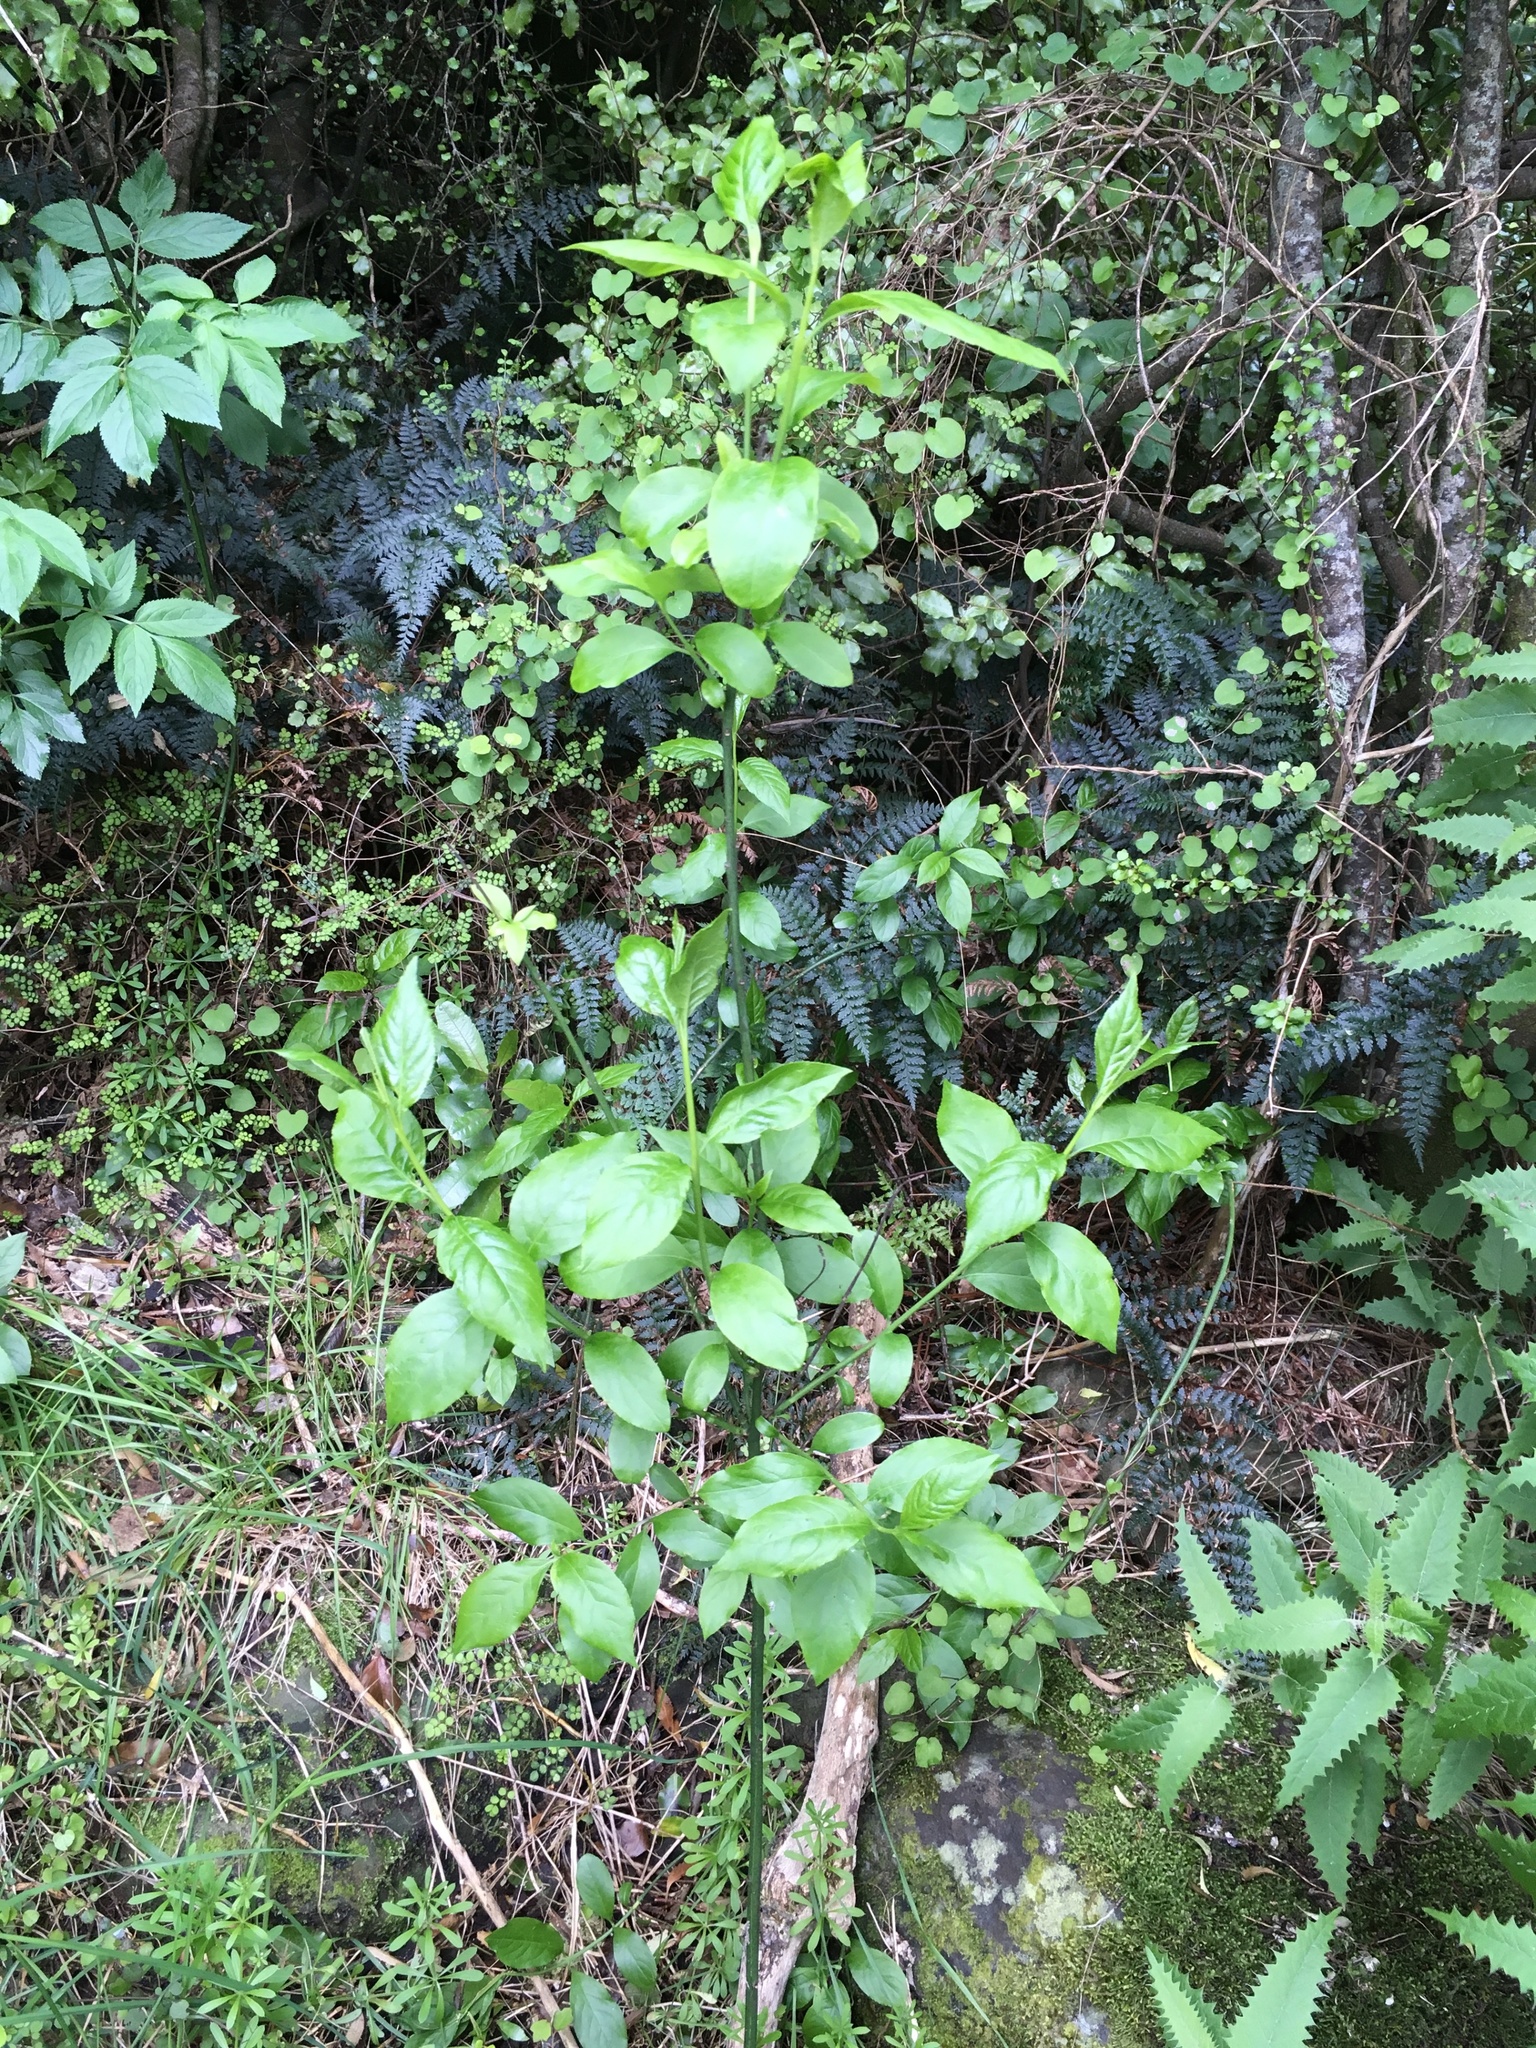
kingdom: Plantae
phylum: Tracheophyta
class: Magnoliopsida
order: Celastrales
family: Celastraceae
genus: Euonymus
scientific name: Euonymus europaeus
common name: Spindle
